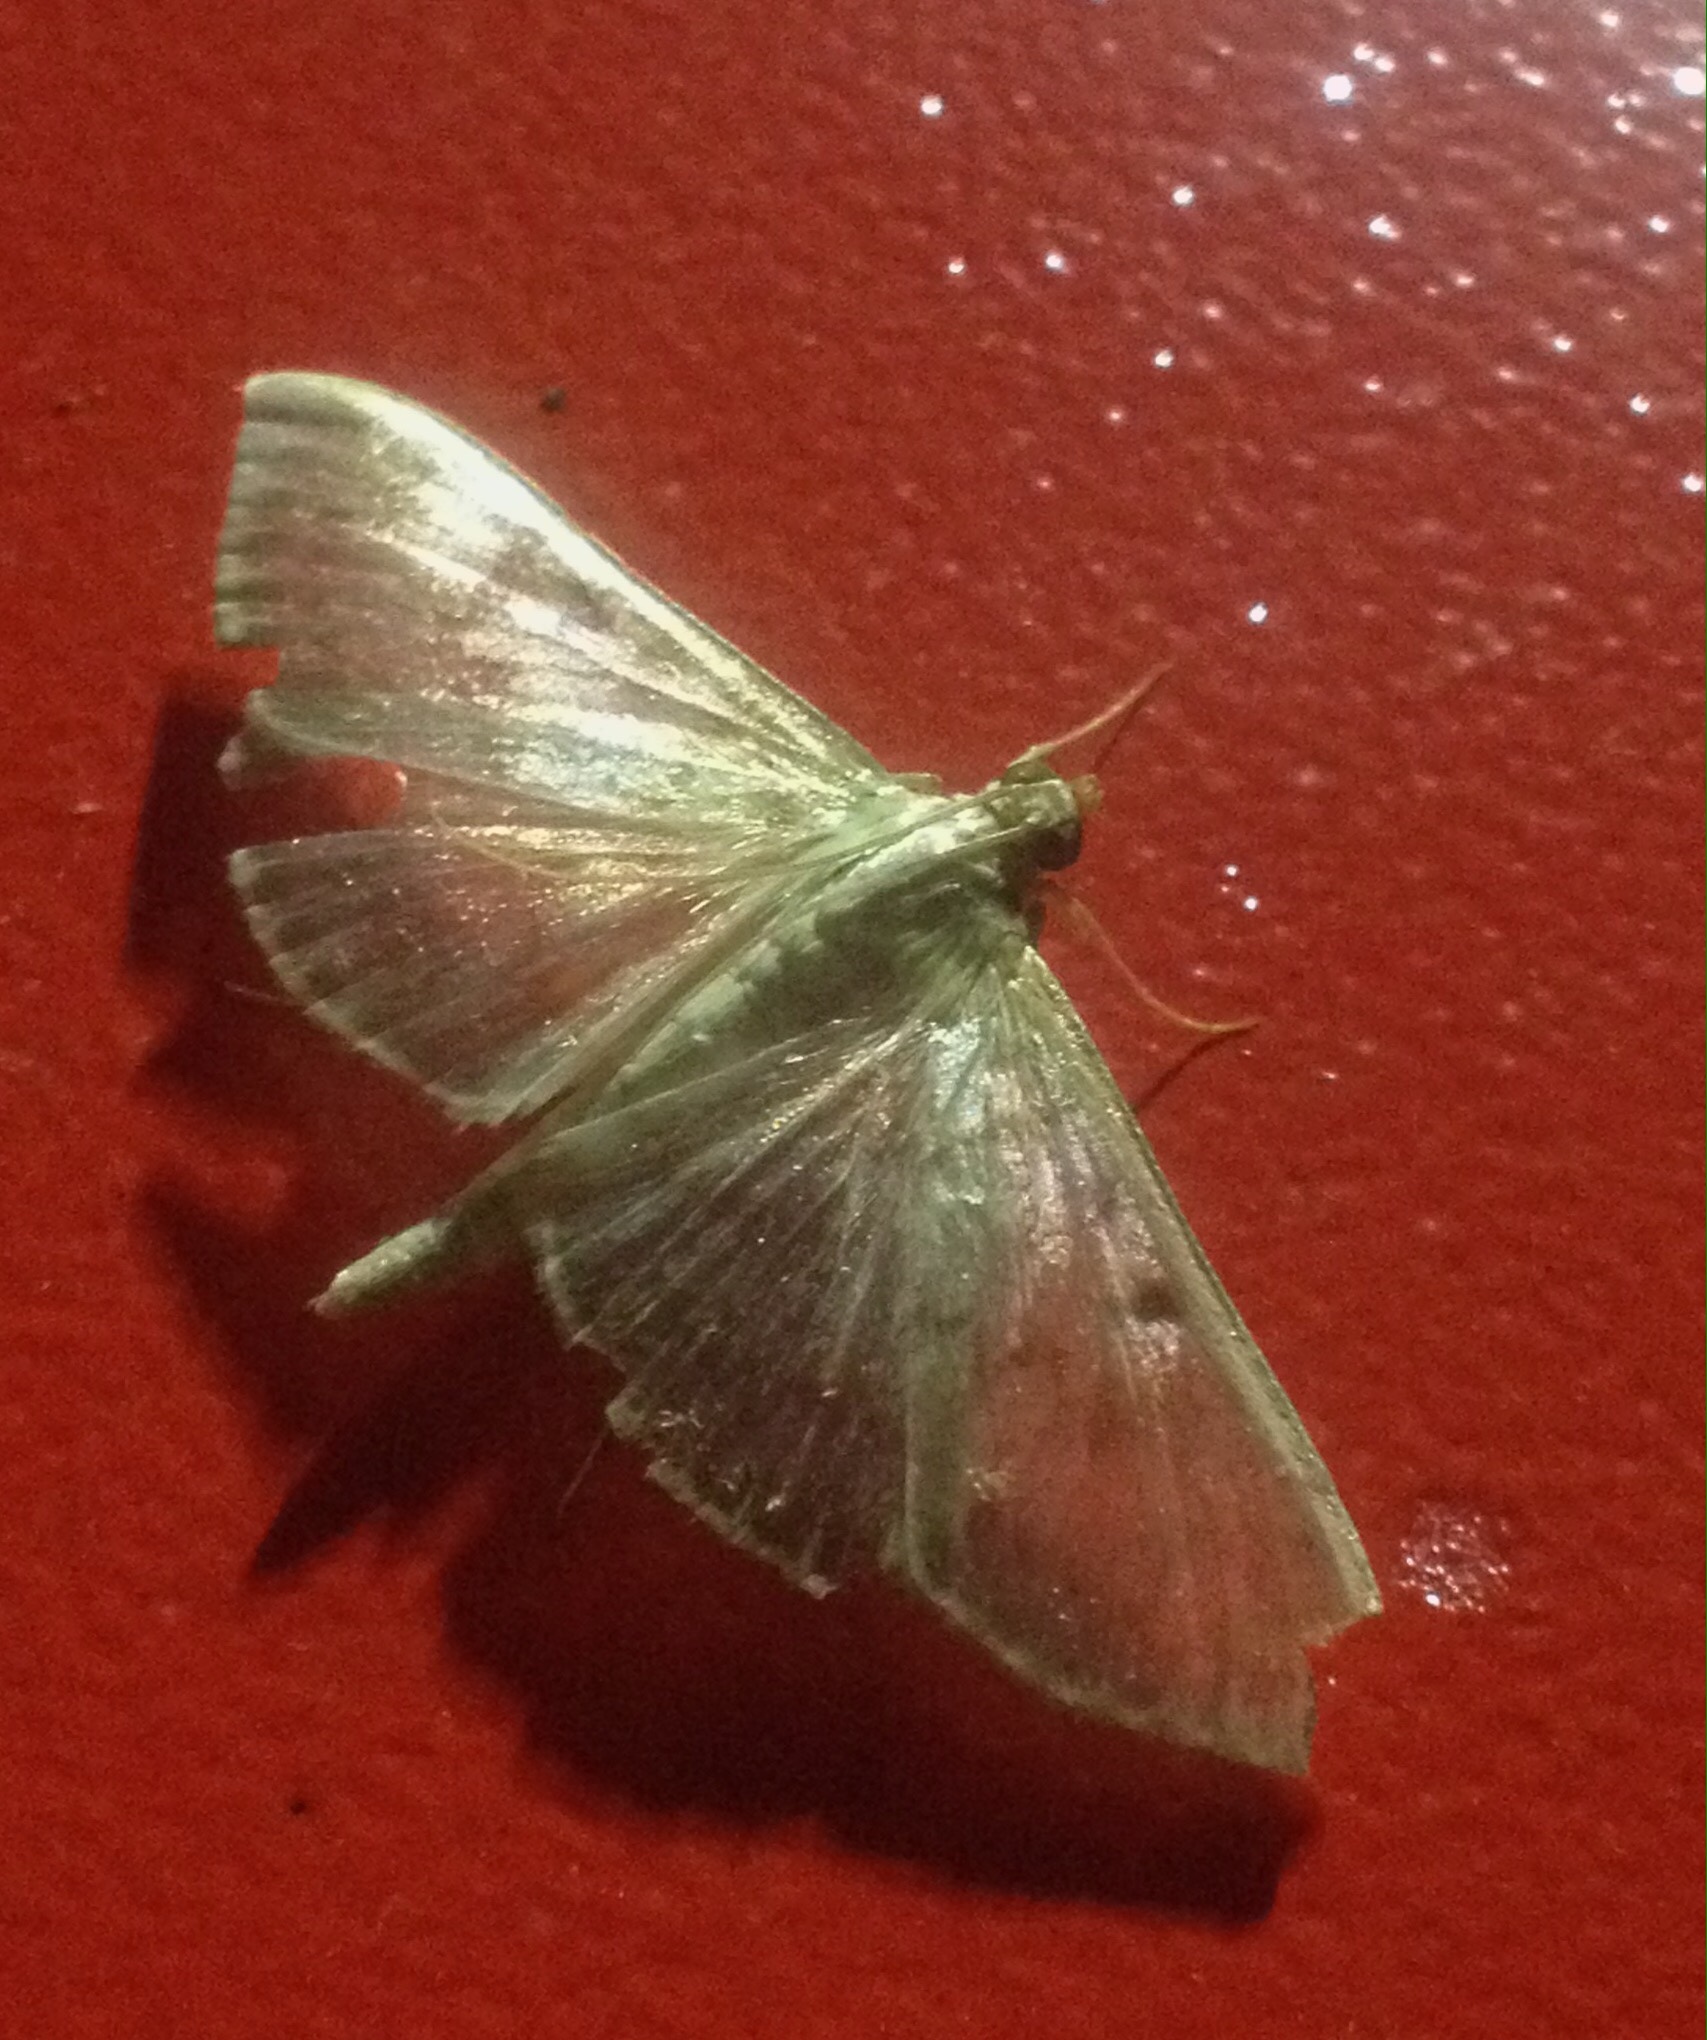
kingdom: Animalia
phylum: Arthropoda
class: Insecta
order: Lepidoptera
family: Crambidae
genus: Patania
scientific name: Patania ruralis
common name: Mother of pearl
